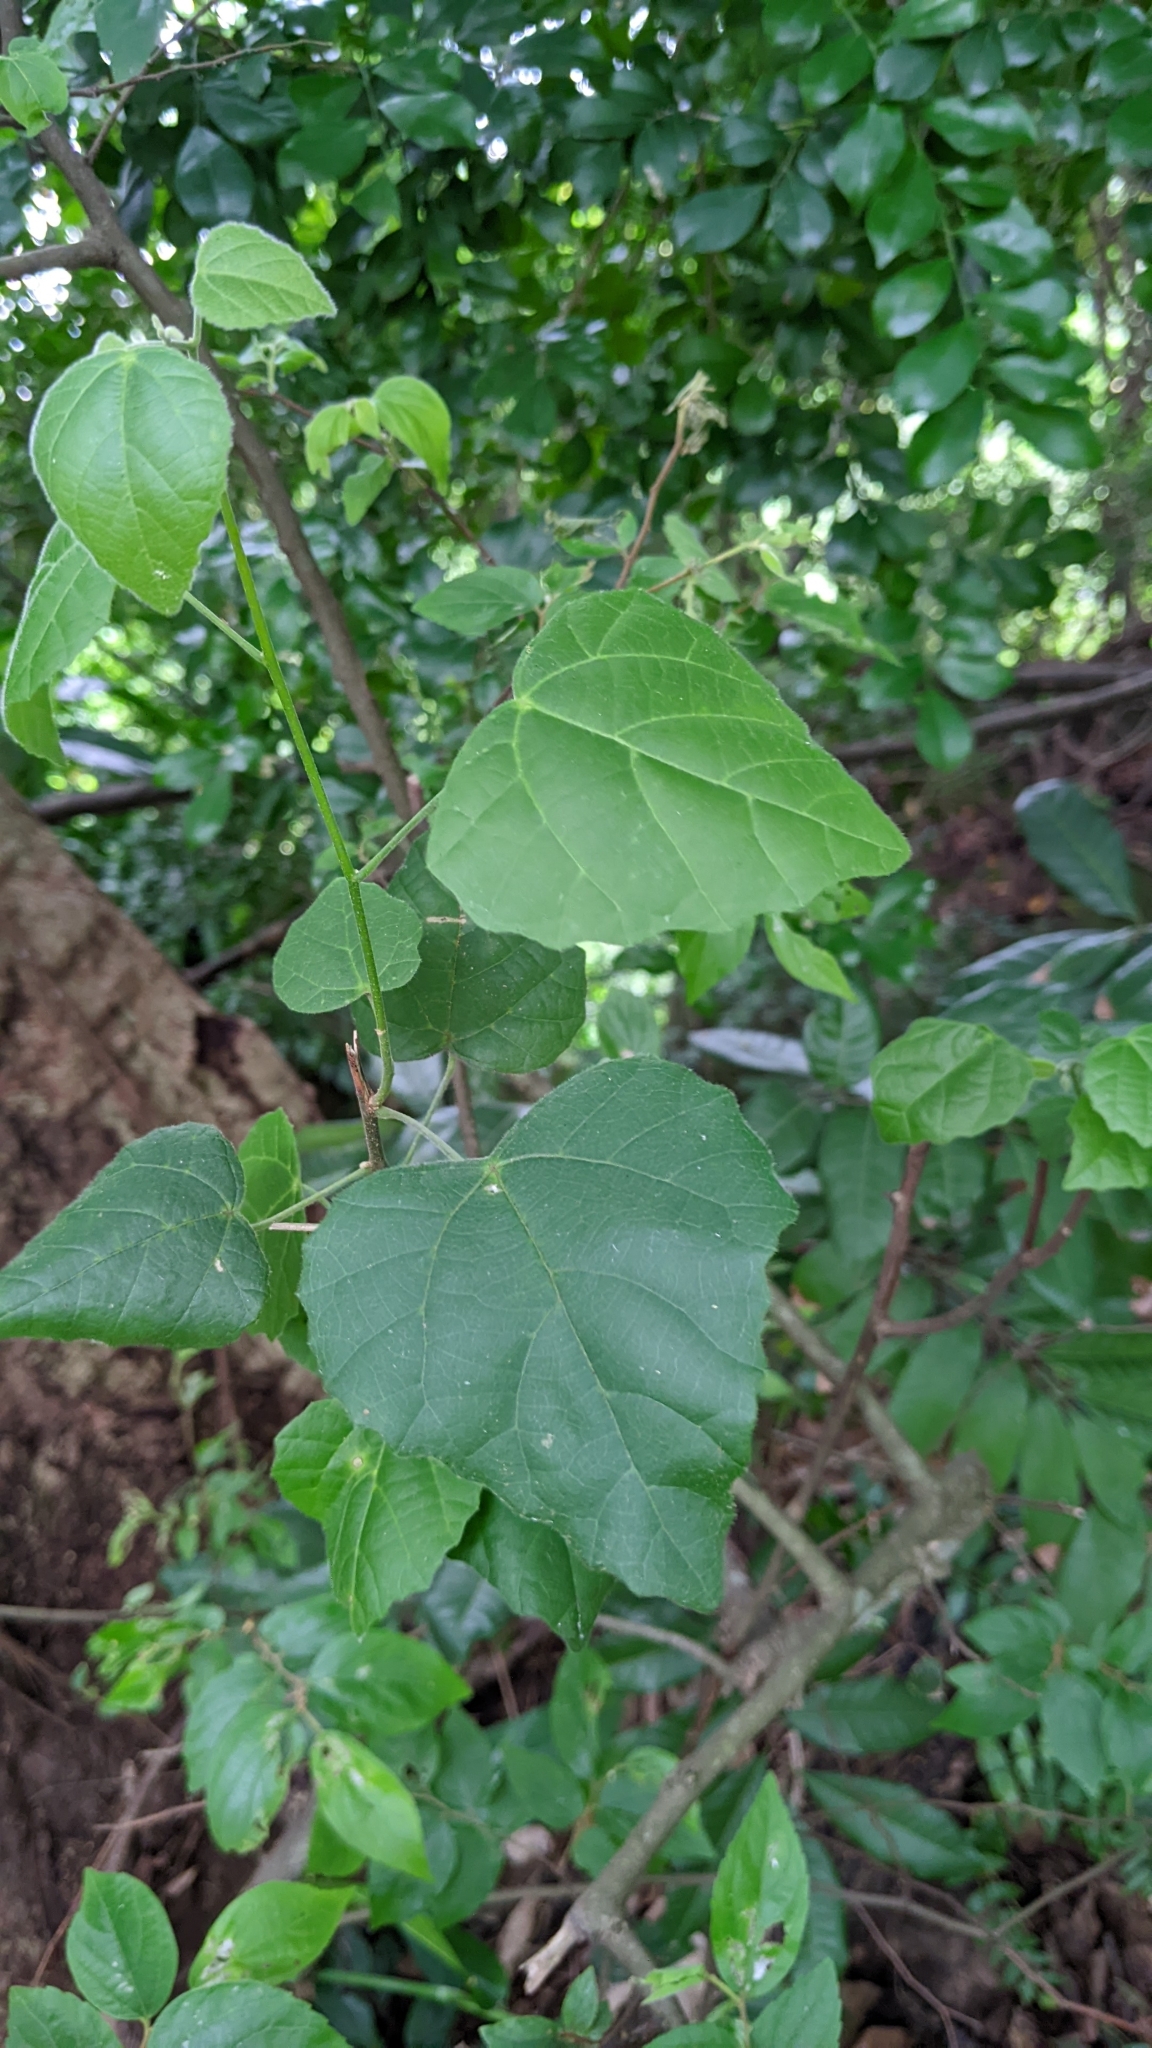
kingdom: Plantae
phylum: Tracheophyta
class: Magnoliopsida
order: Malpighiales
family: Euphorbiaceae
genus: Mallotus
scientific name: Mallotus repandus
